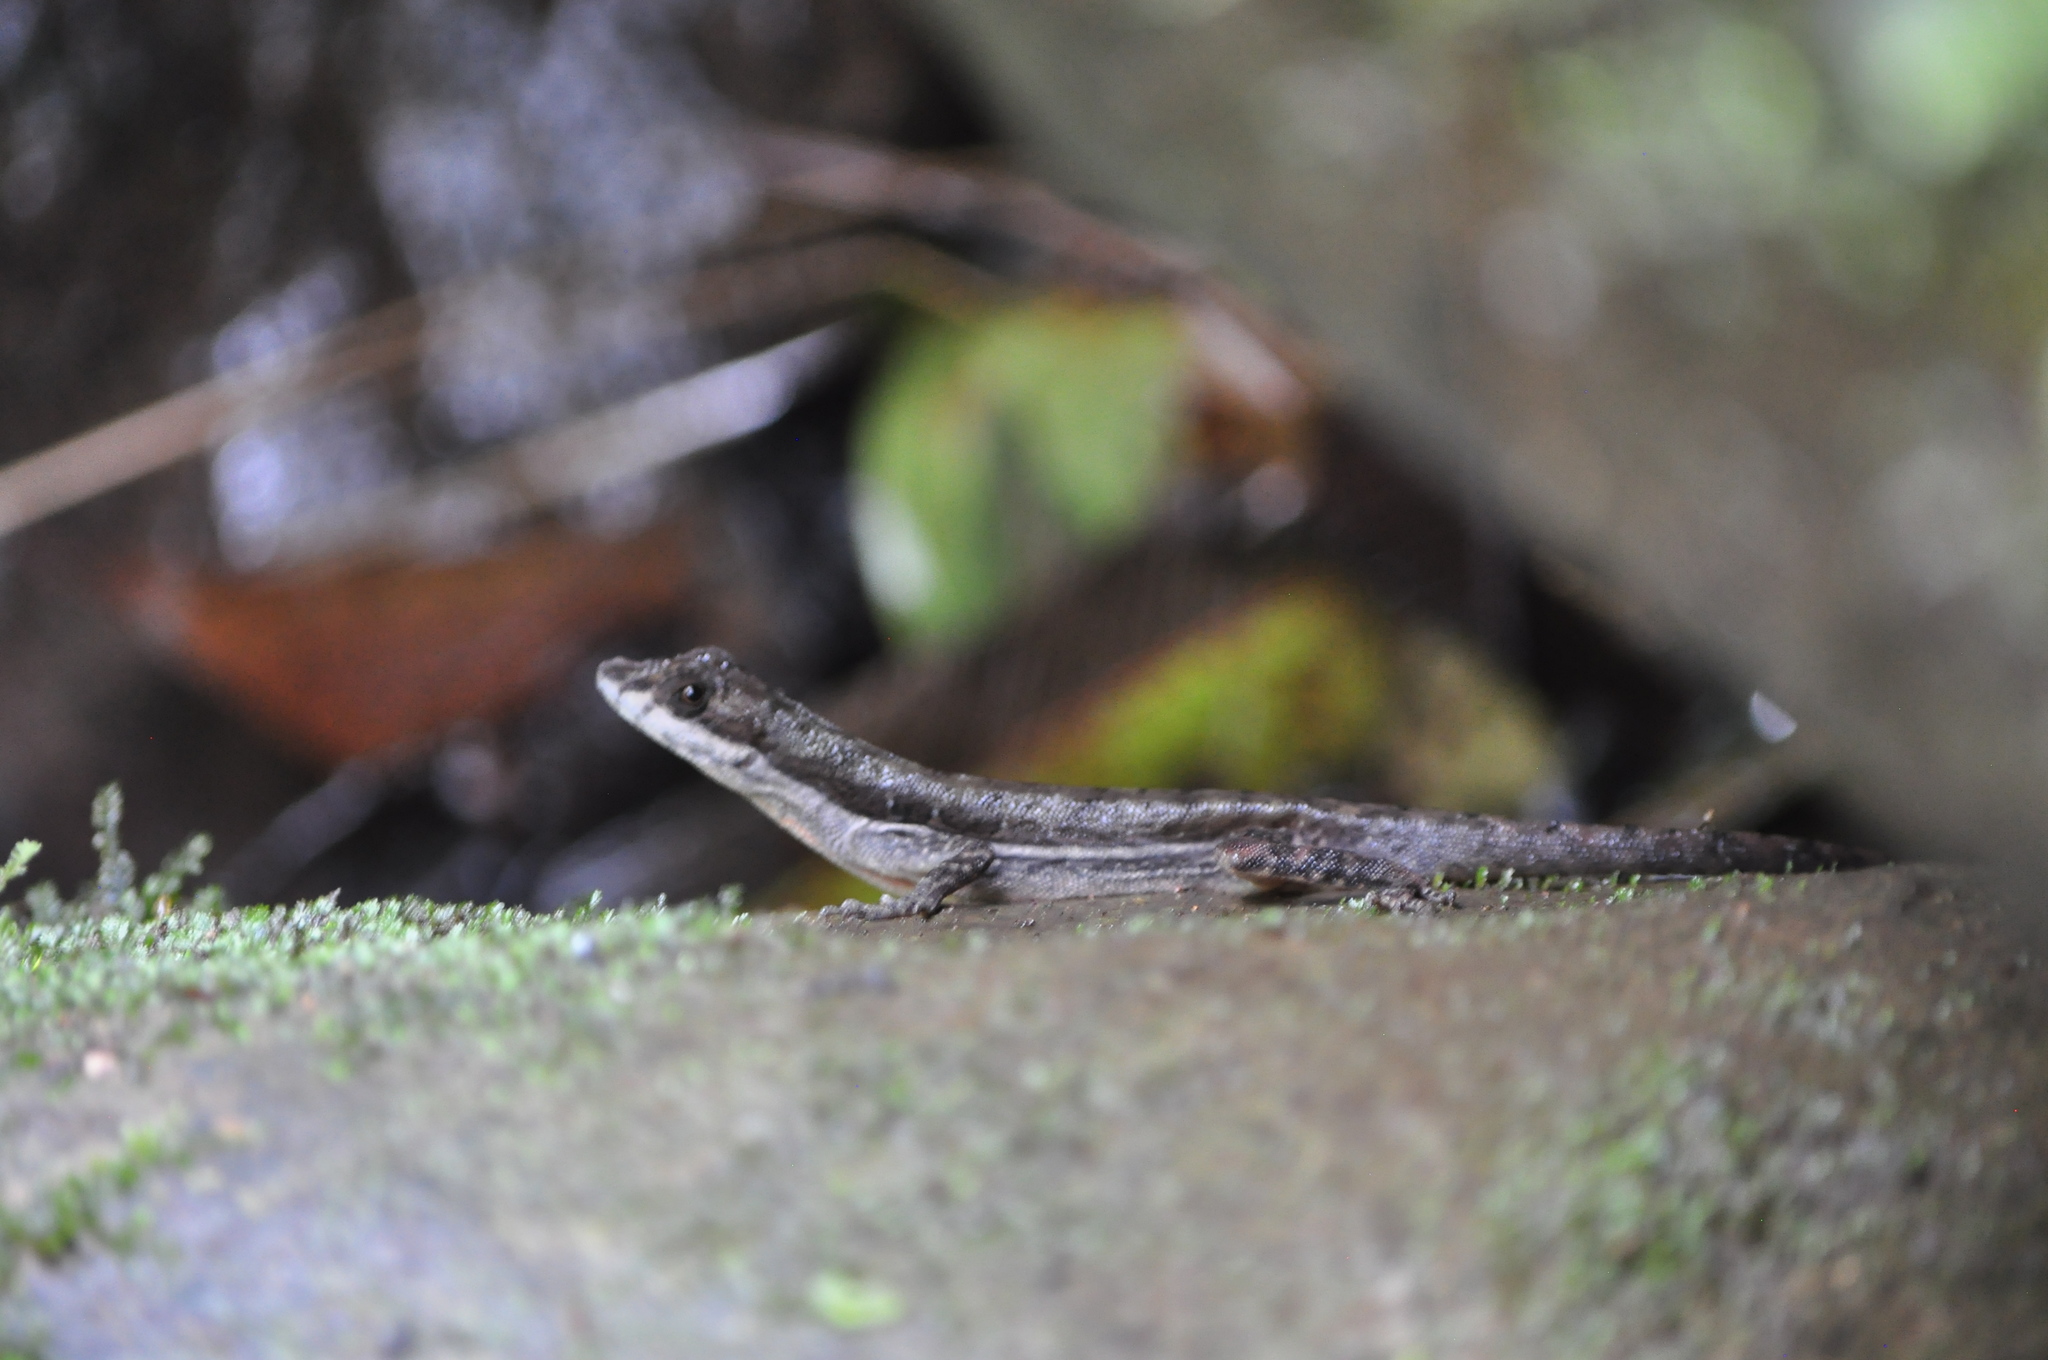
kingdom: Animalia
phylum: Chordata
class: Squamata
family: Dactyloidae
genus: Anolis
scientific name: Anolis oxylophus
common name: Stream anole
